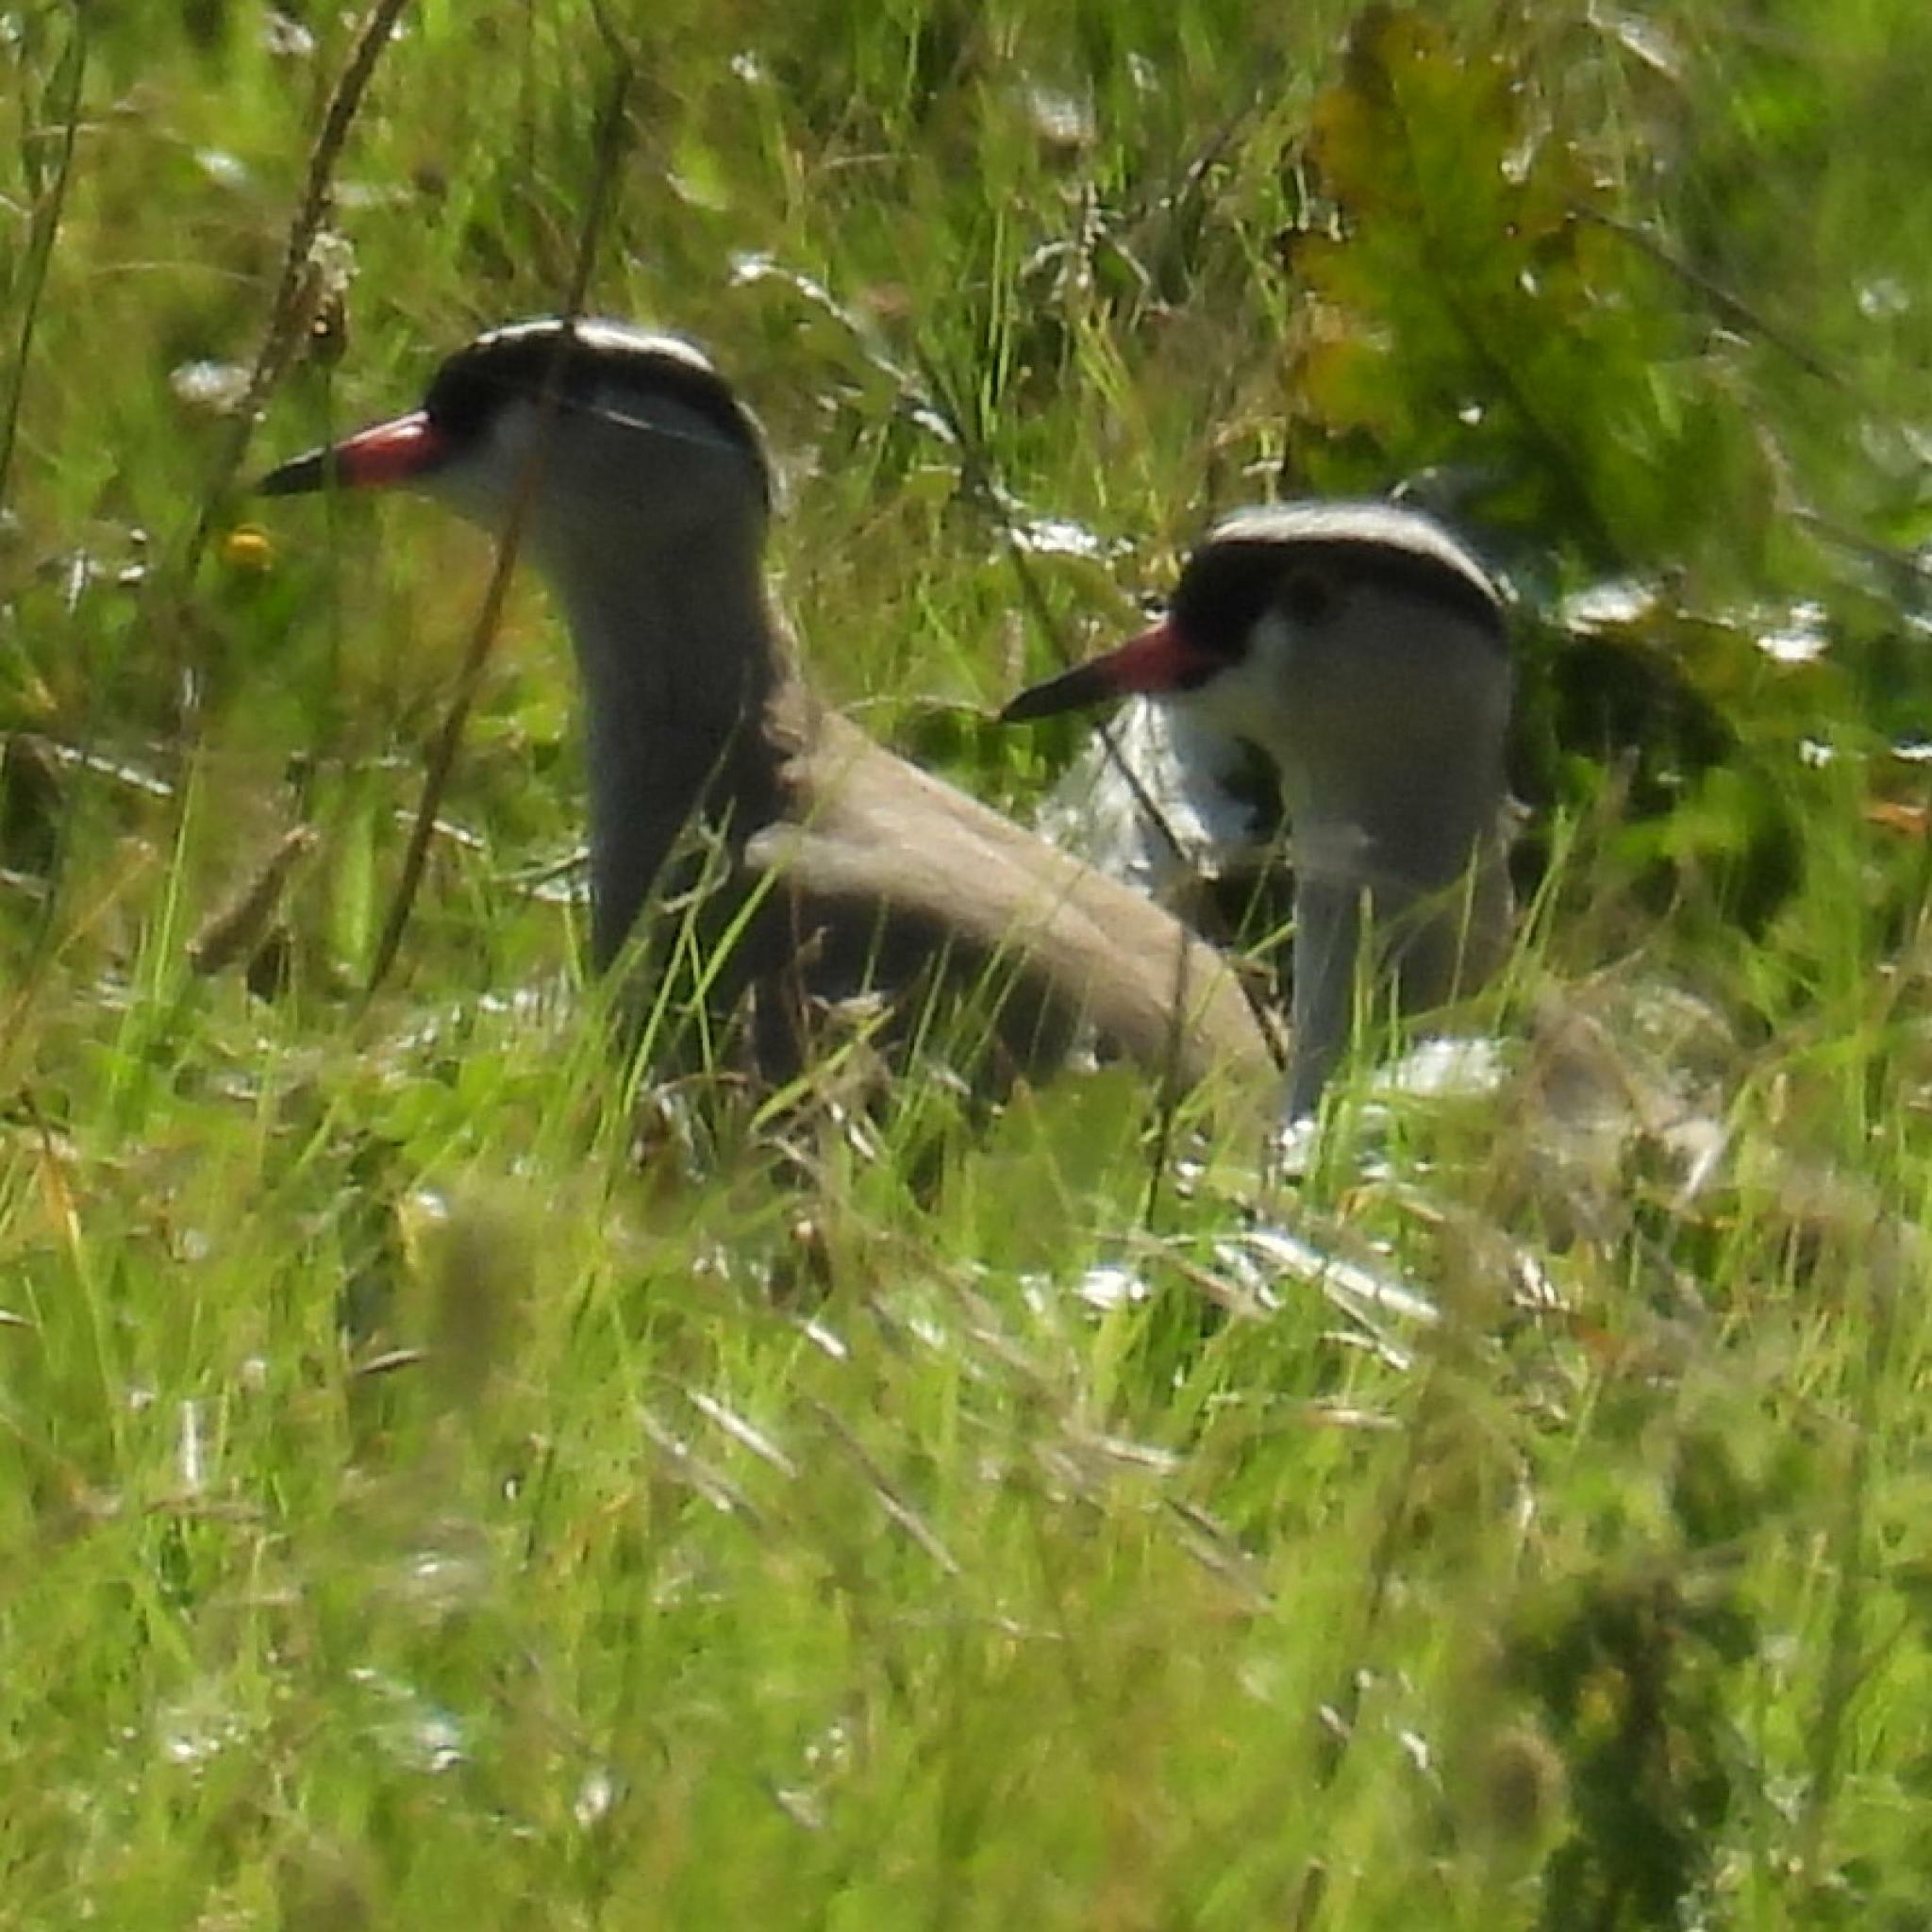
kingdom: Animalia
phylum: Chordata
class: Aves
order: Charadriiformes
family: Charadriidae
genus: Vanellus
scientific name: Vanellus coronatus
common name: Crowned lapwing
